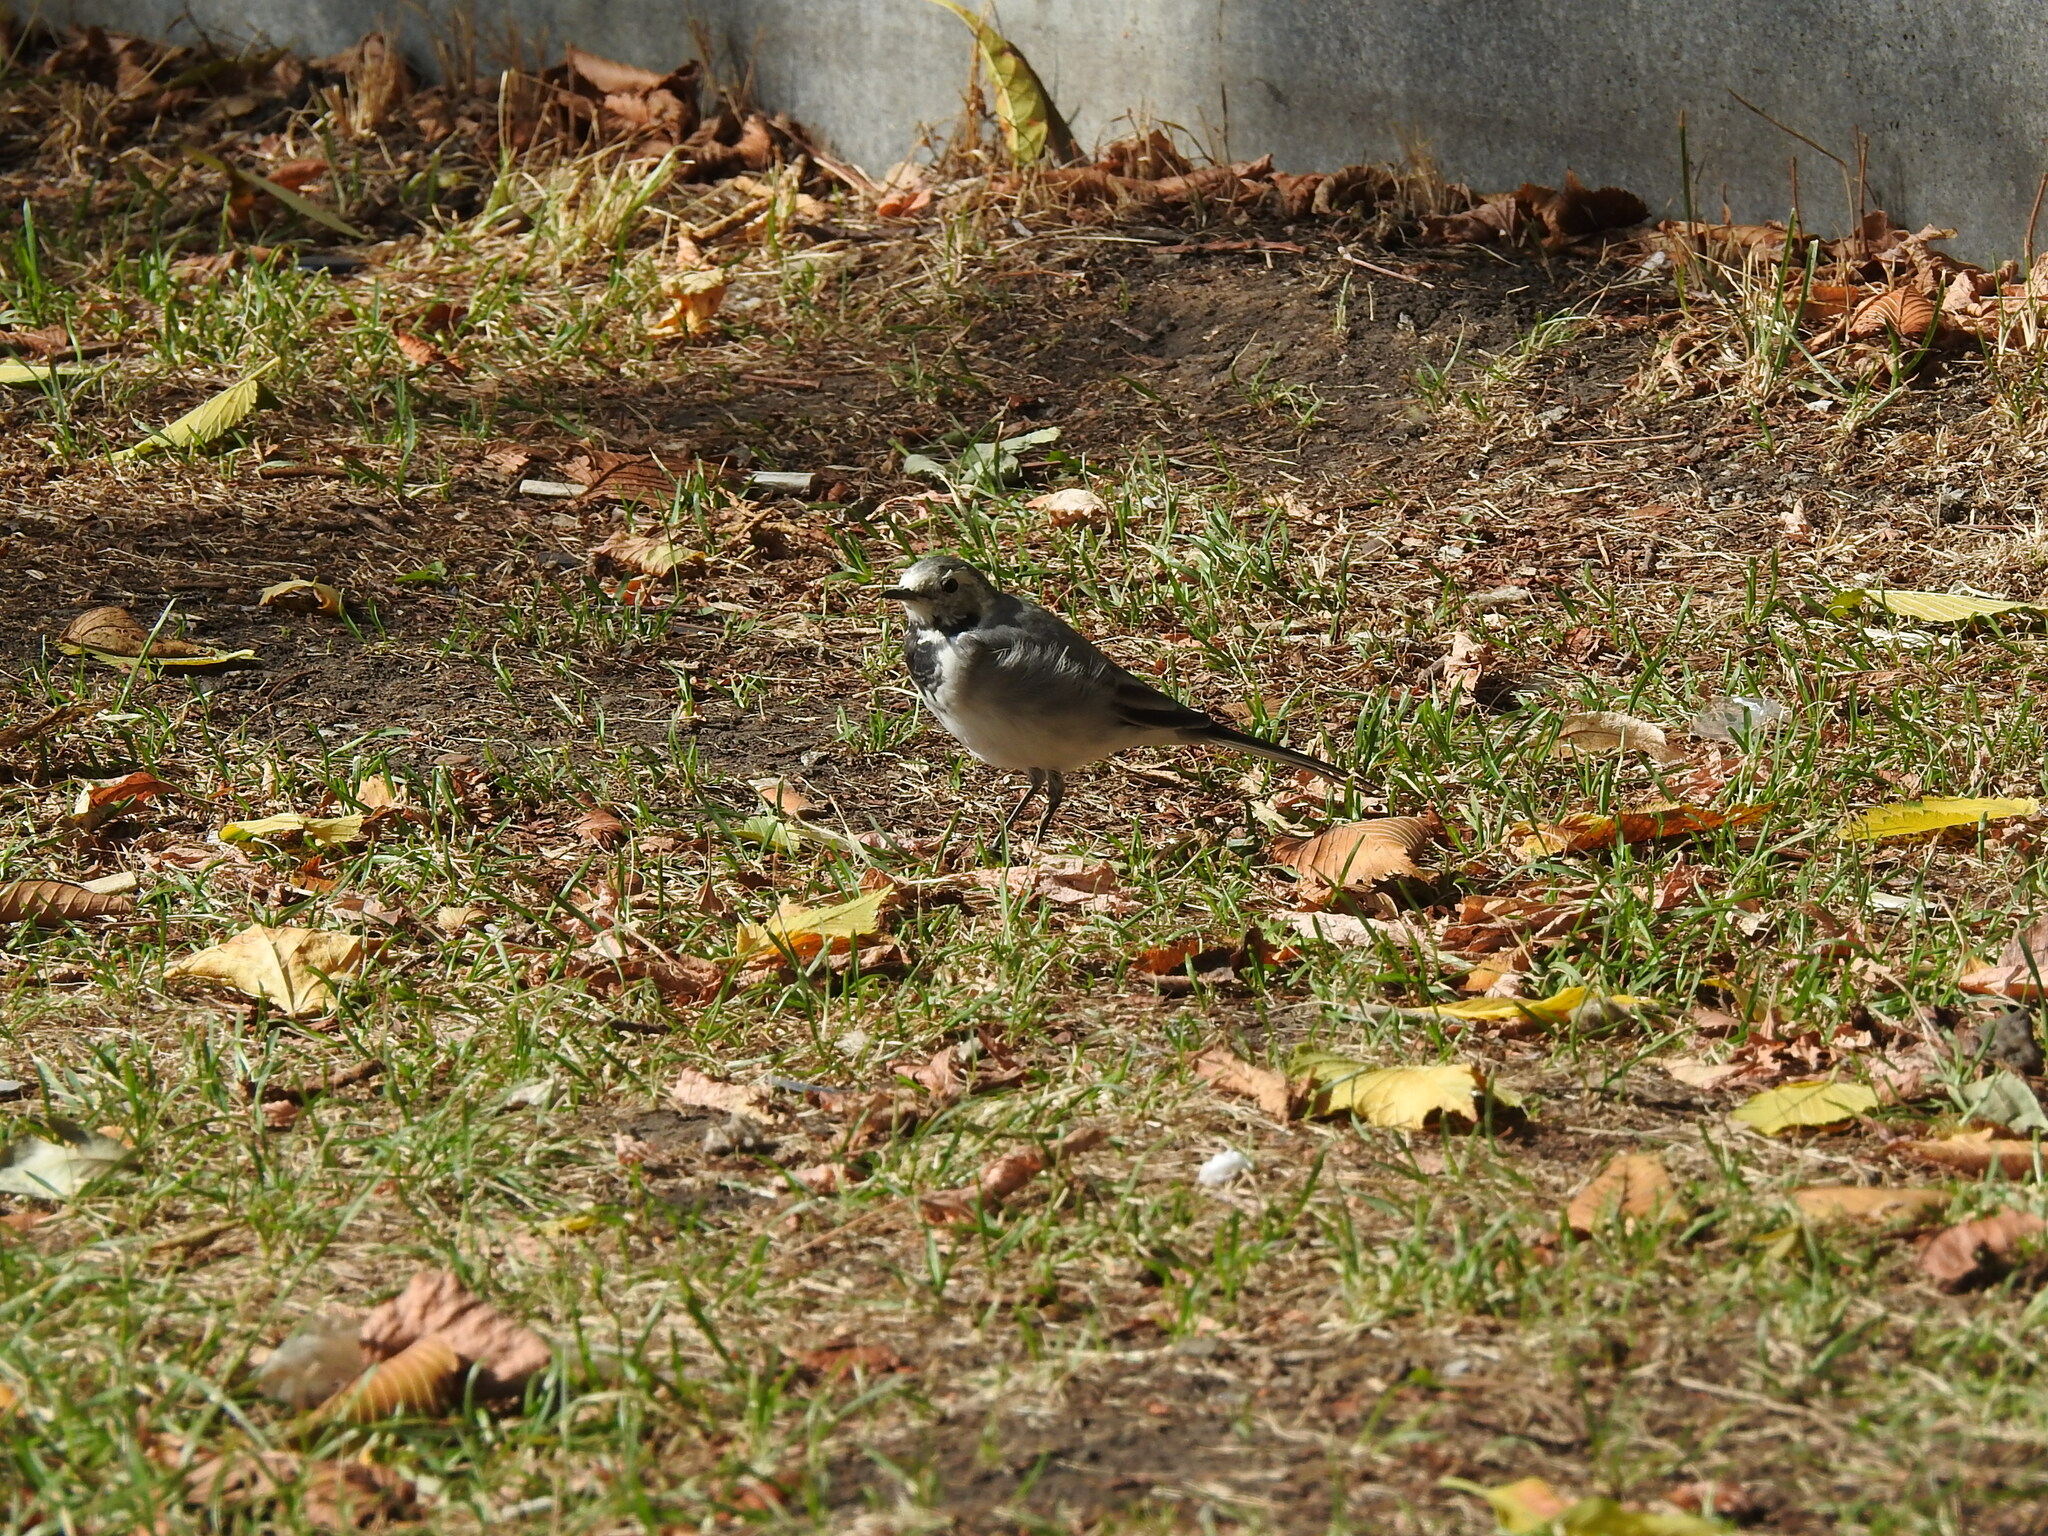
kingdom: Animalia
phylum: Chordata
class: Aves
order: Passeriformes
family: Motacillidae
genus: Motacilla
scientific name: Motacilla alba
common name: White wagtail
